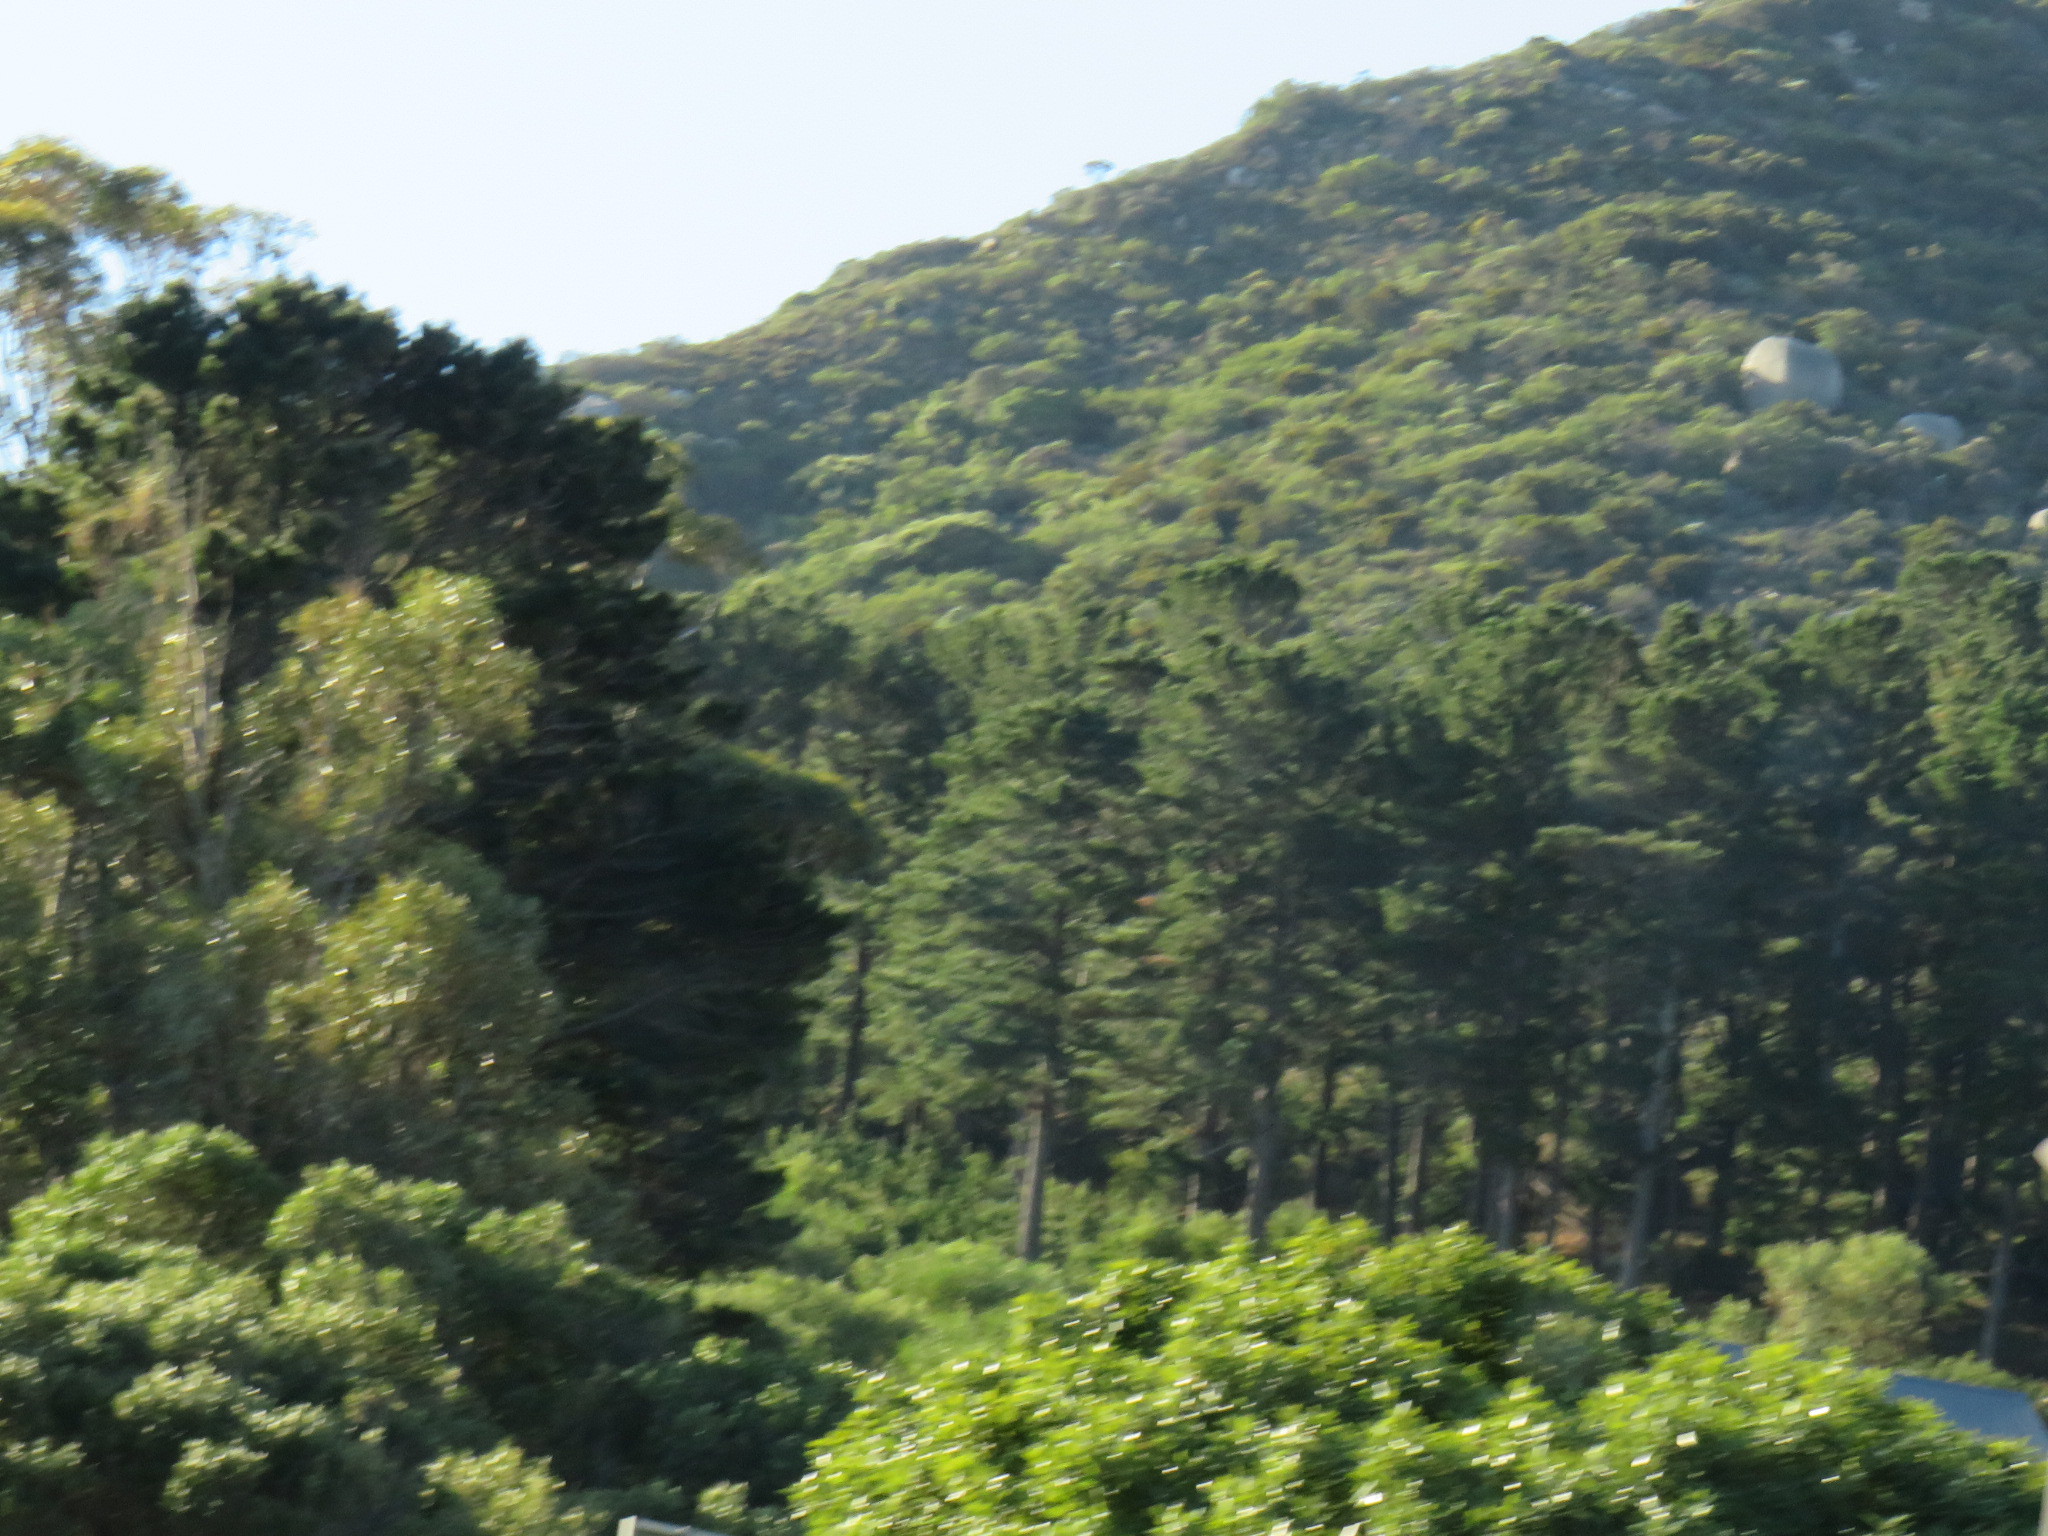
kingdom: Plantae
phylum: Tracheophyta
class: Pinopsida
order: Pinales
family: Pinaceae
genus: Pinus
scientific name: Pinus radiata
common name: Monterey pine
